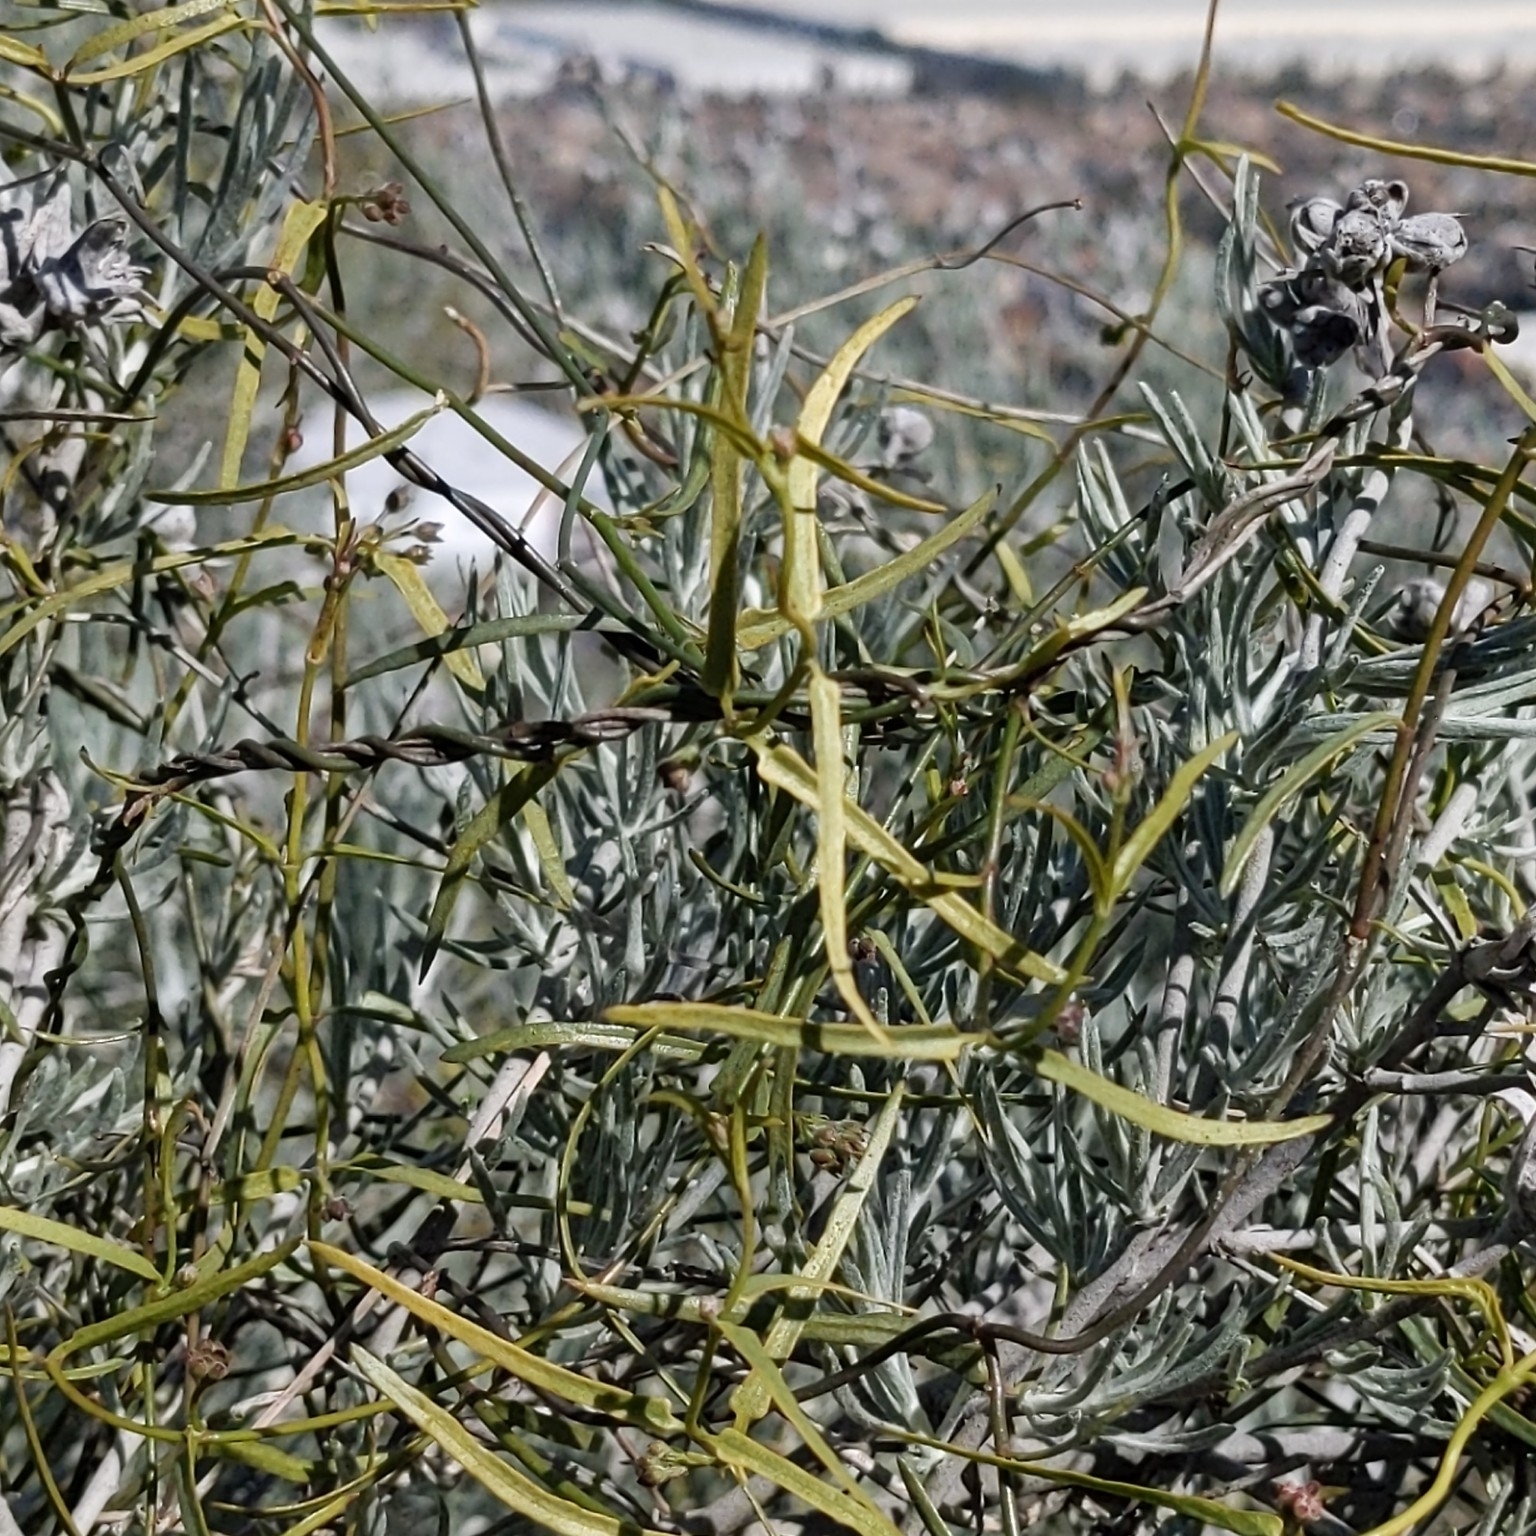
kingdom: Plantae
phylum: Tracheophyta
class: Magnoliopsida
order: Gentianales
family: Apocynaceae
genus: Funastrum
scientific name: Funastrum heterophyllum
